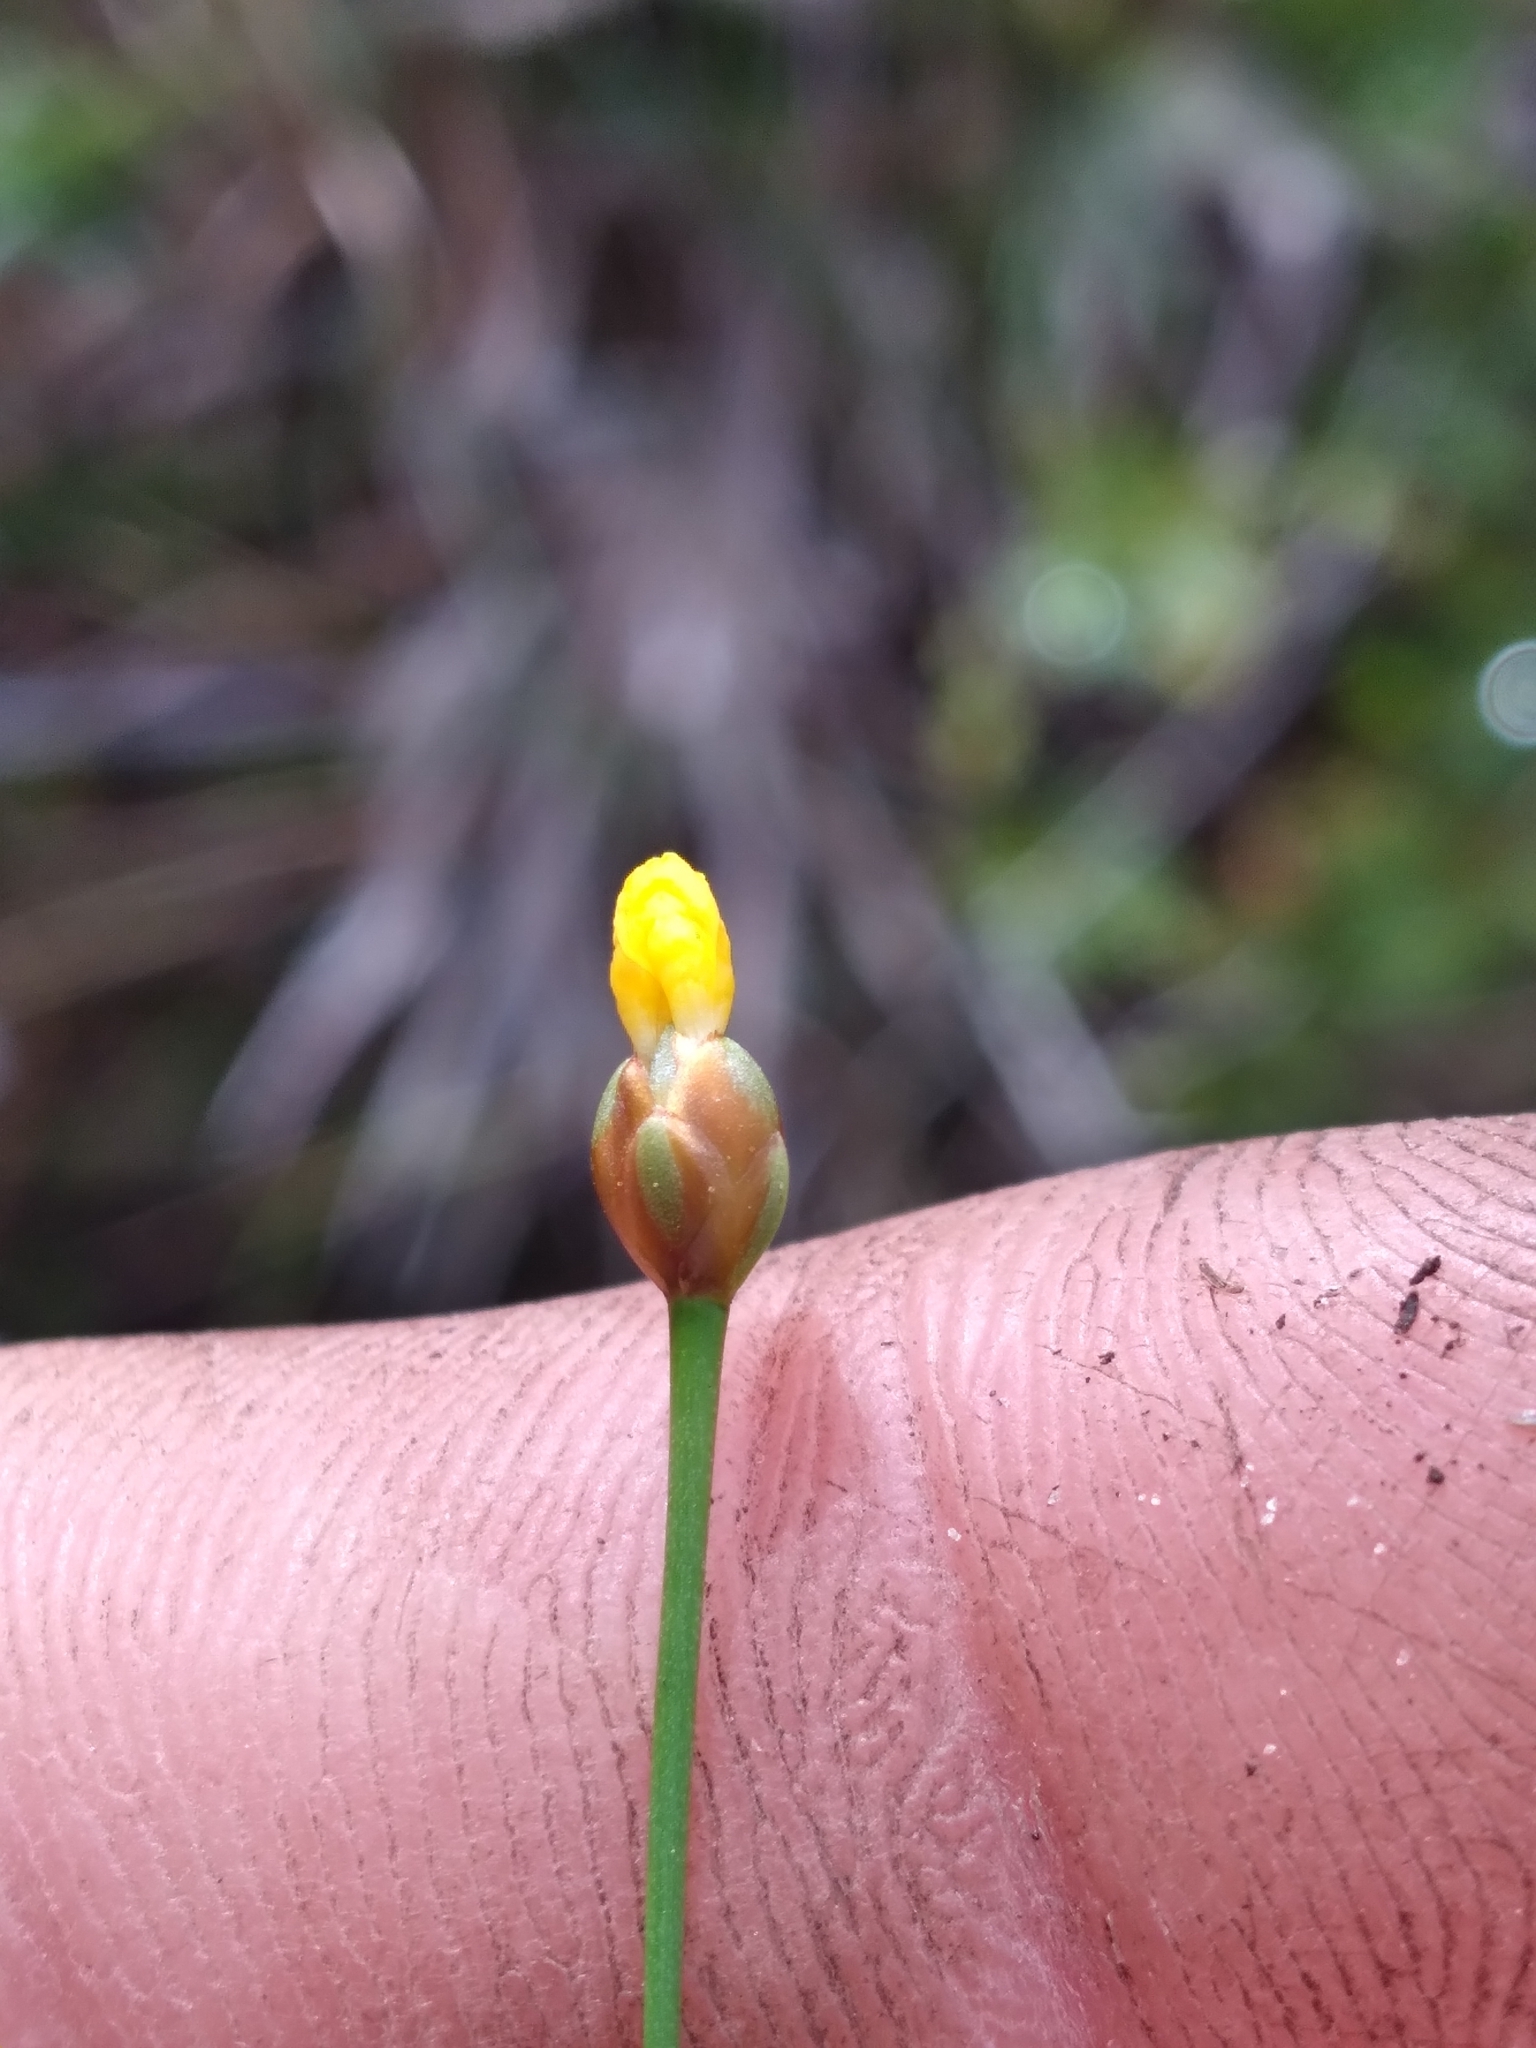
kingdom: Plantae
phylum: Tracheophyta
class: Liliopsida
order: Poales
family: Xyridaceae
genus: Xyris
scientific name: Xyris flabelliformis
